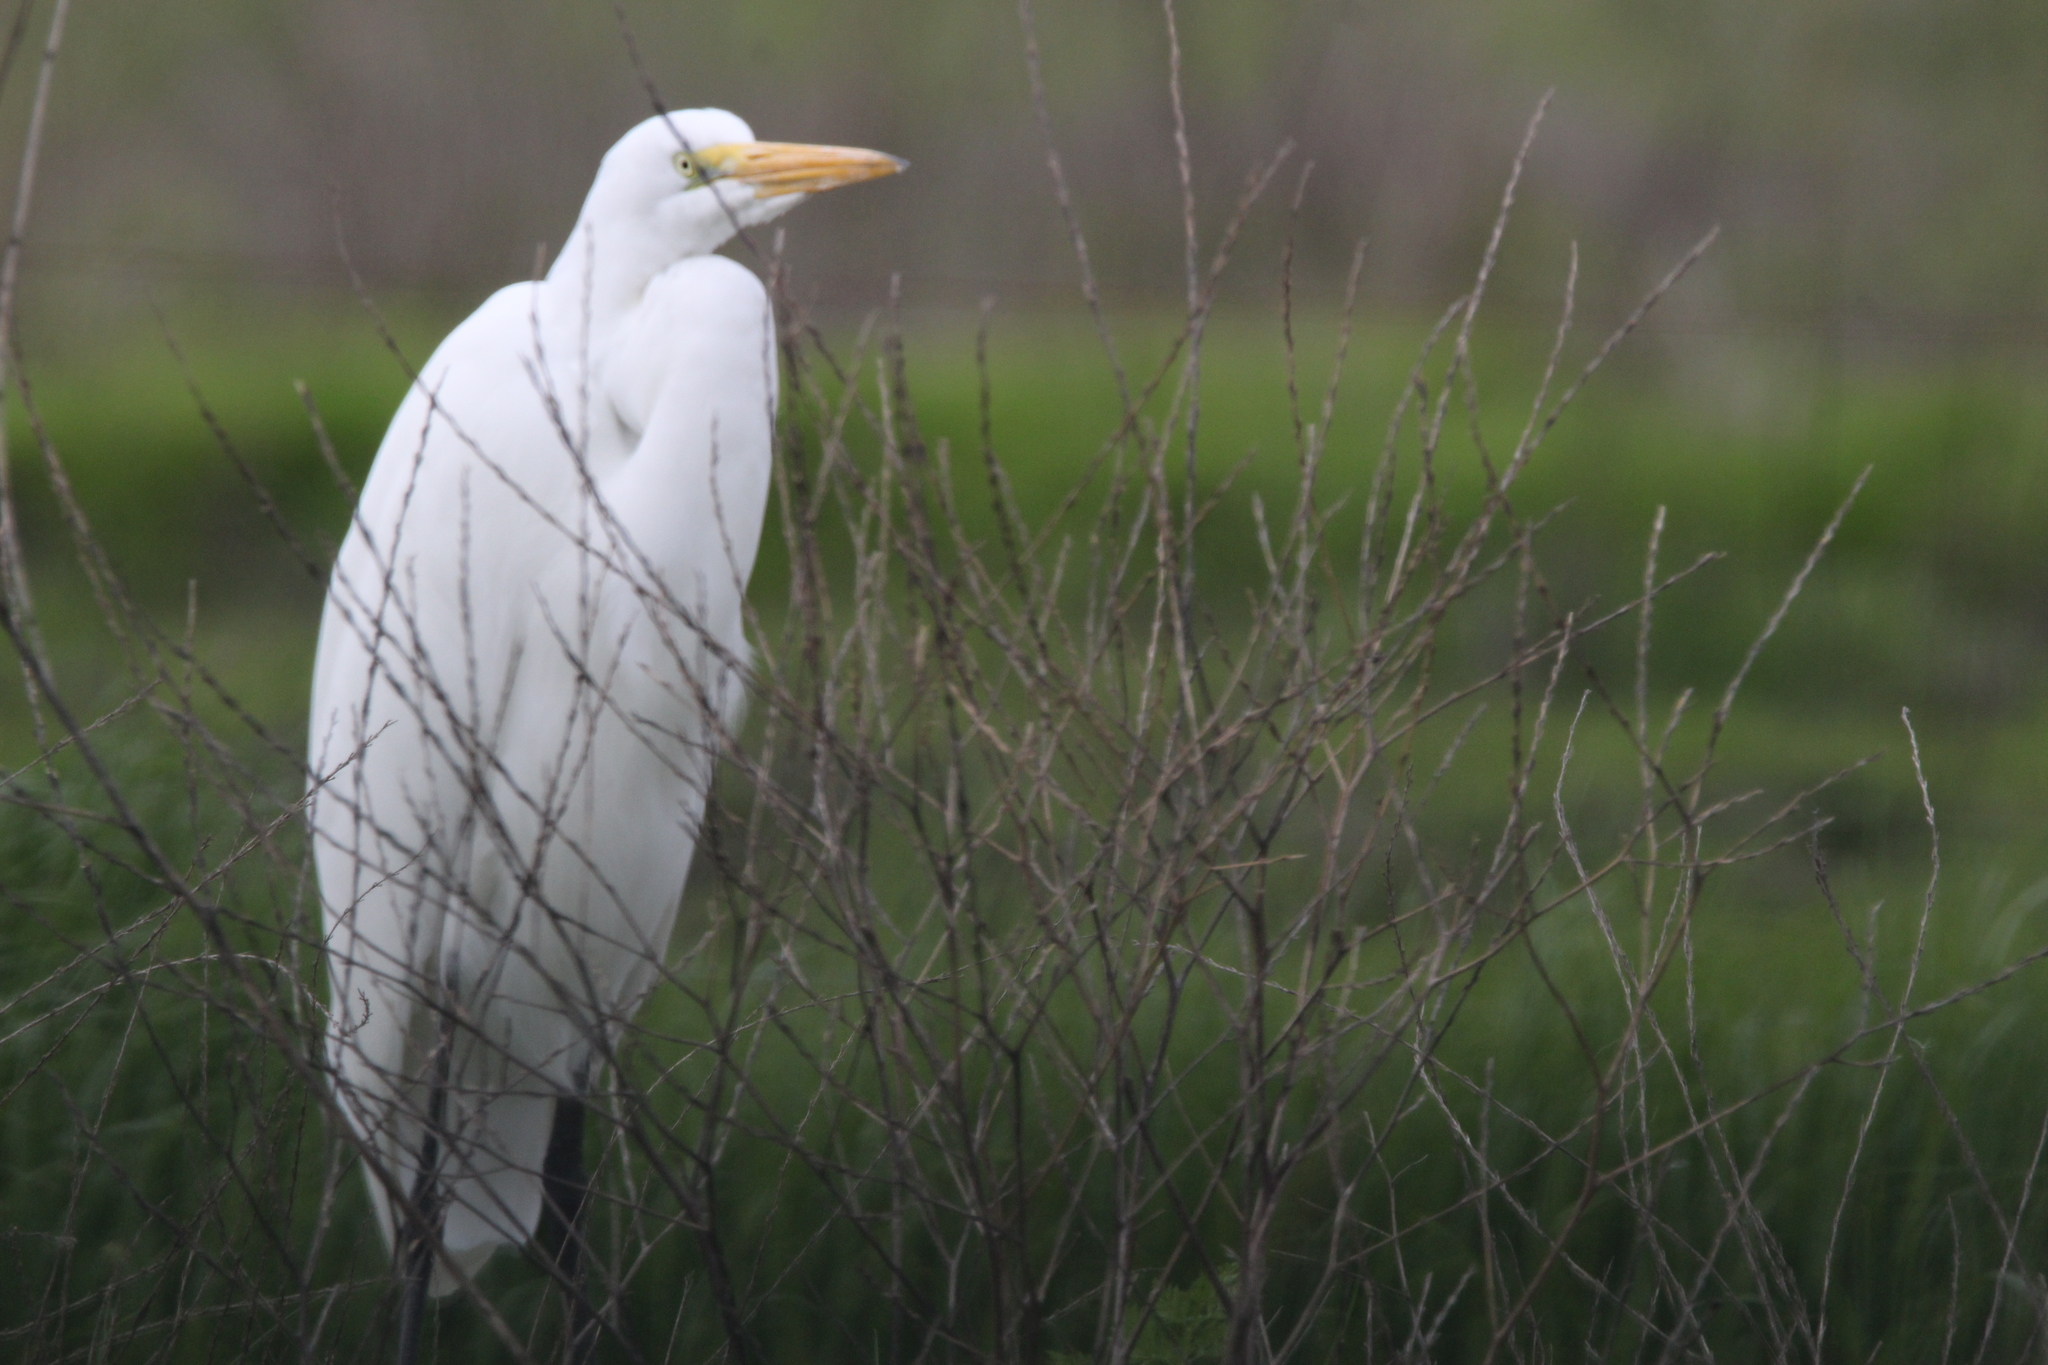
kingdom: Animalia
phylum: Chordata
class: Aves
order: Pelecaniformes
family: Ardeidae
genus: Ardea
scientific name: Ardea alba
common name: Great egret
